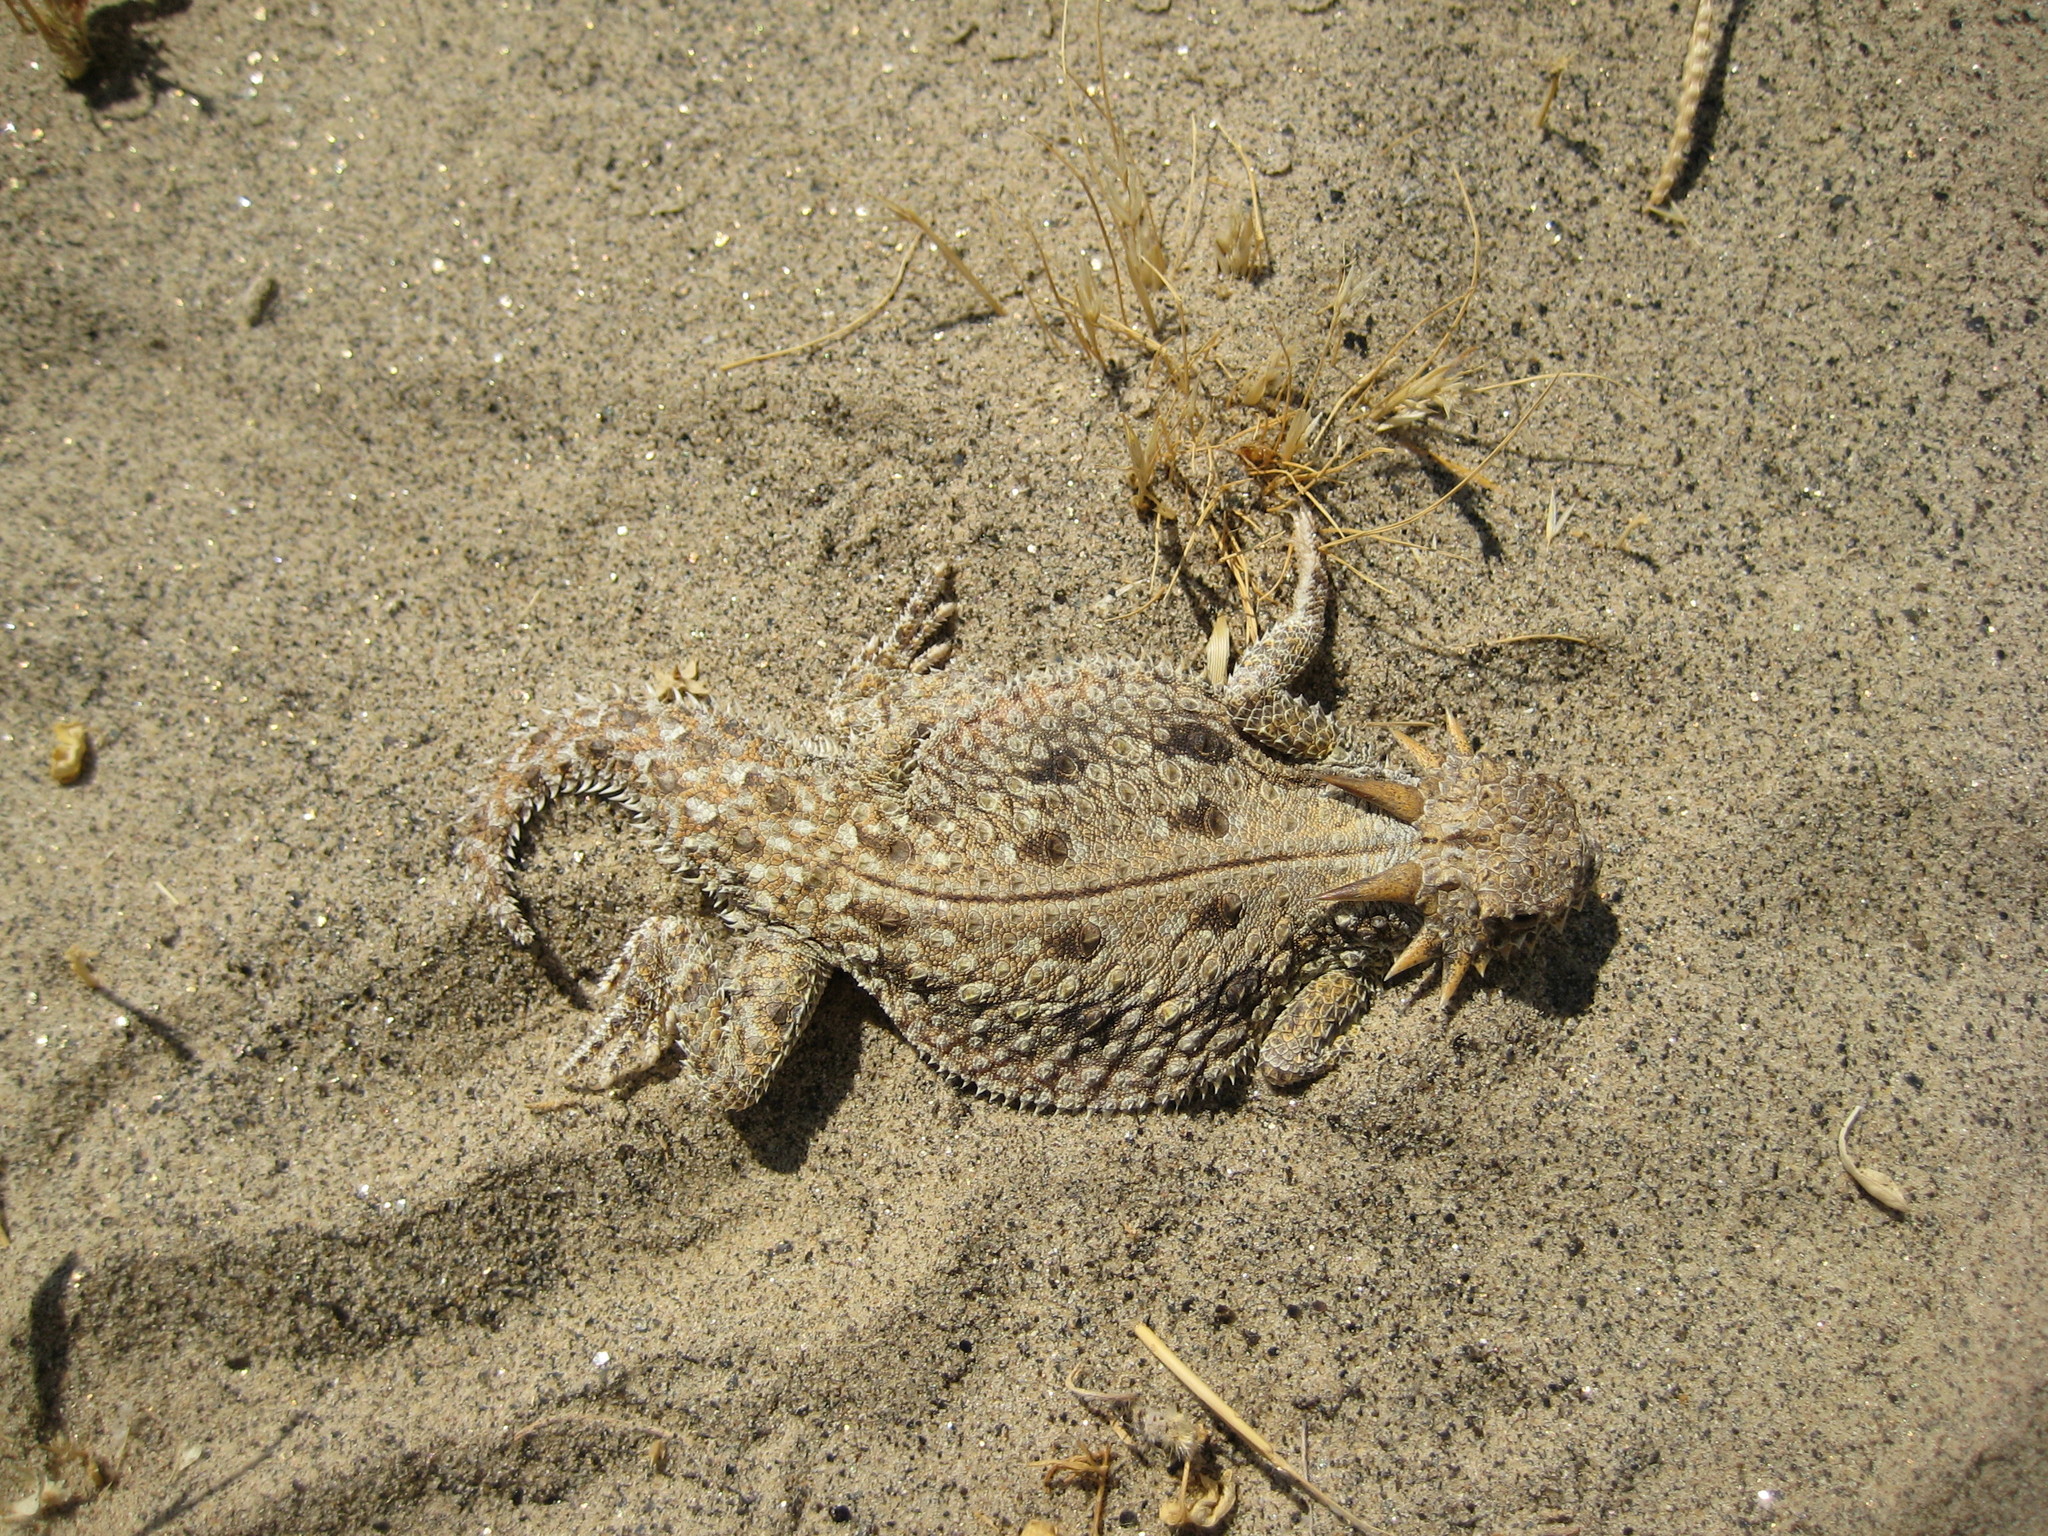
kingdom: Animalia
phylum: Chordata
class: Squamata
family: Phrynosomatidae
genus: Phrynosoma
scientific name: Phrynosoma mcallii
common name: Flat-tailed horned lizard
